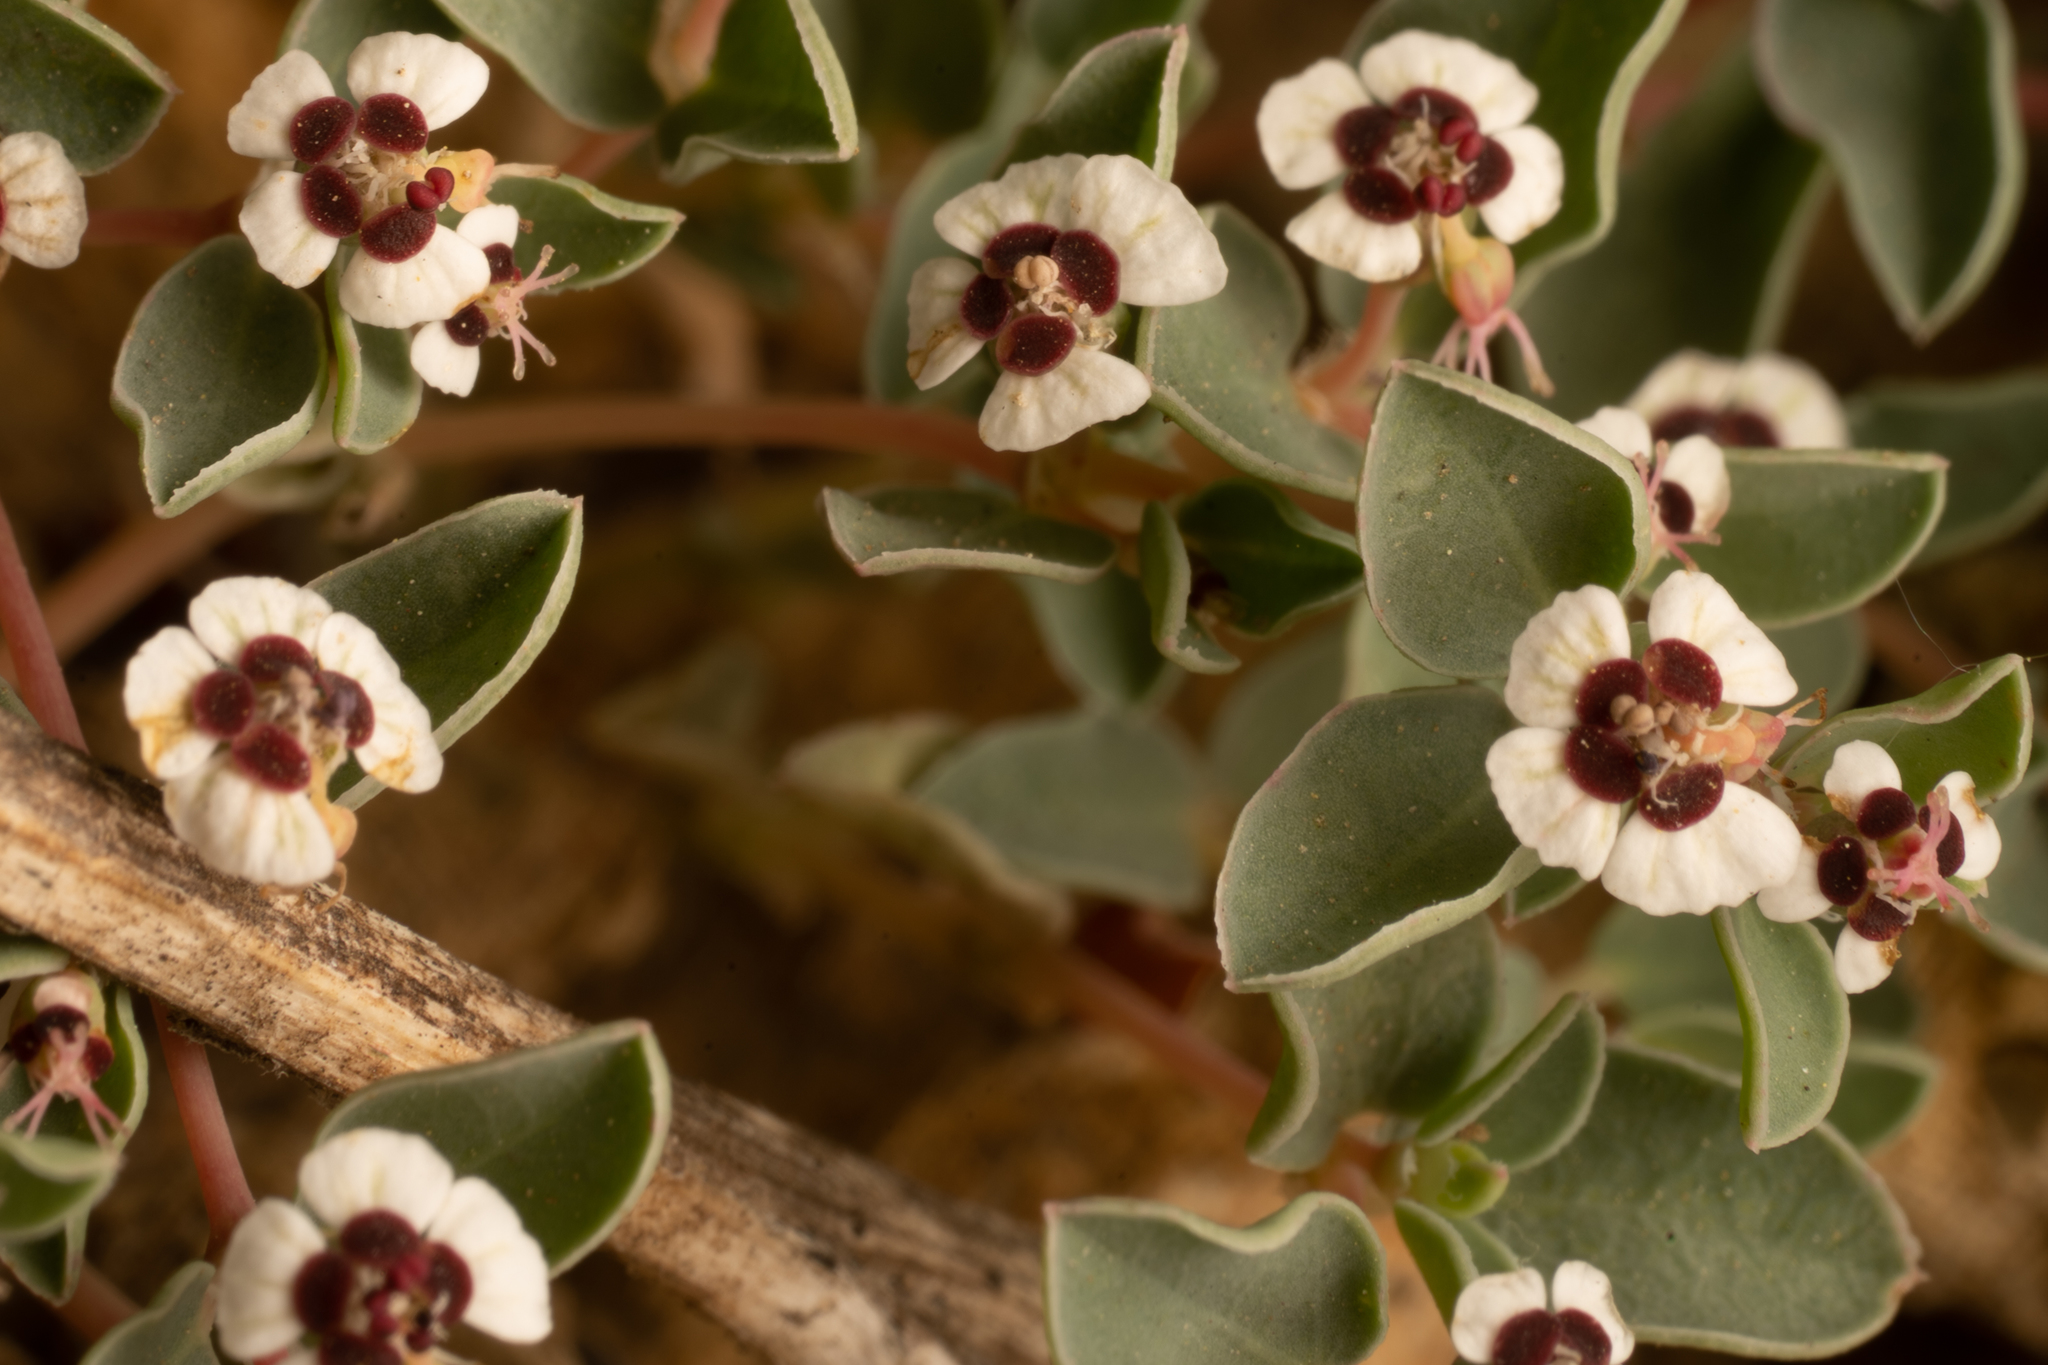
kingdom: Plantae
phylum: Tracheophyta
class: Magnoliopsida
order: Malpighiales
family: Euphorbiaceae
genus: Euphorbia
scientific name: Euphorbia albomarginata
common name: Whitemargin sandmat
